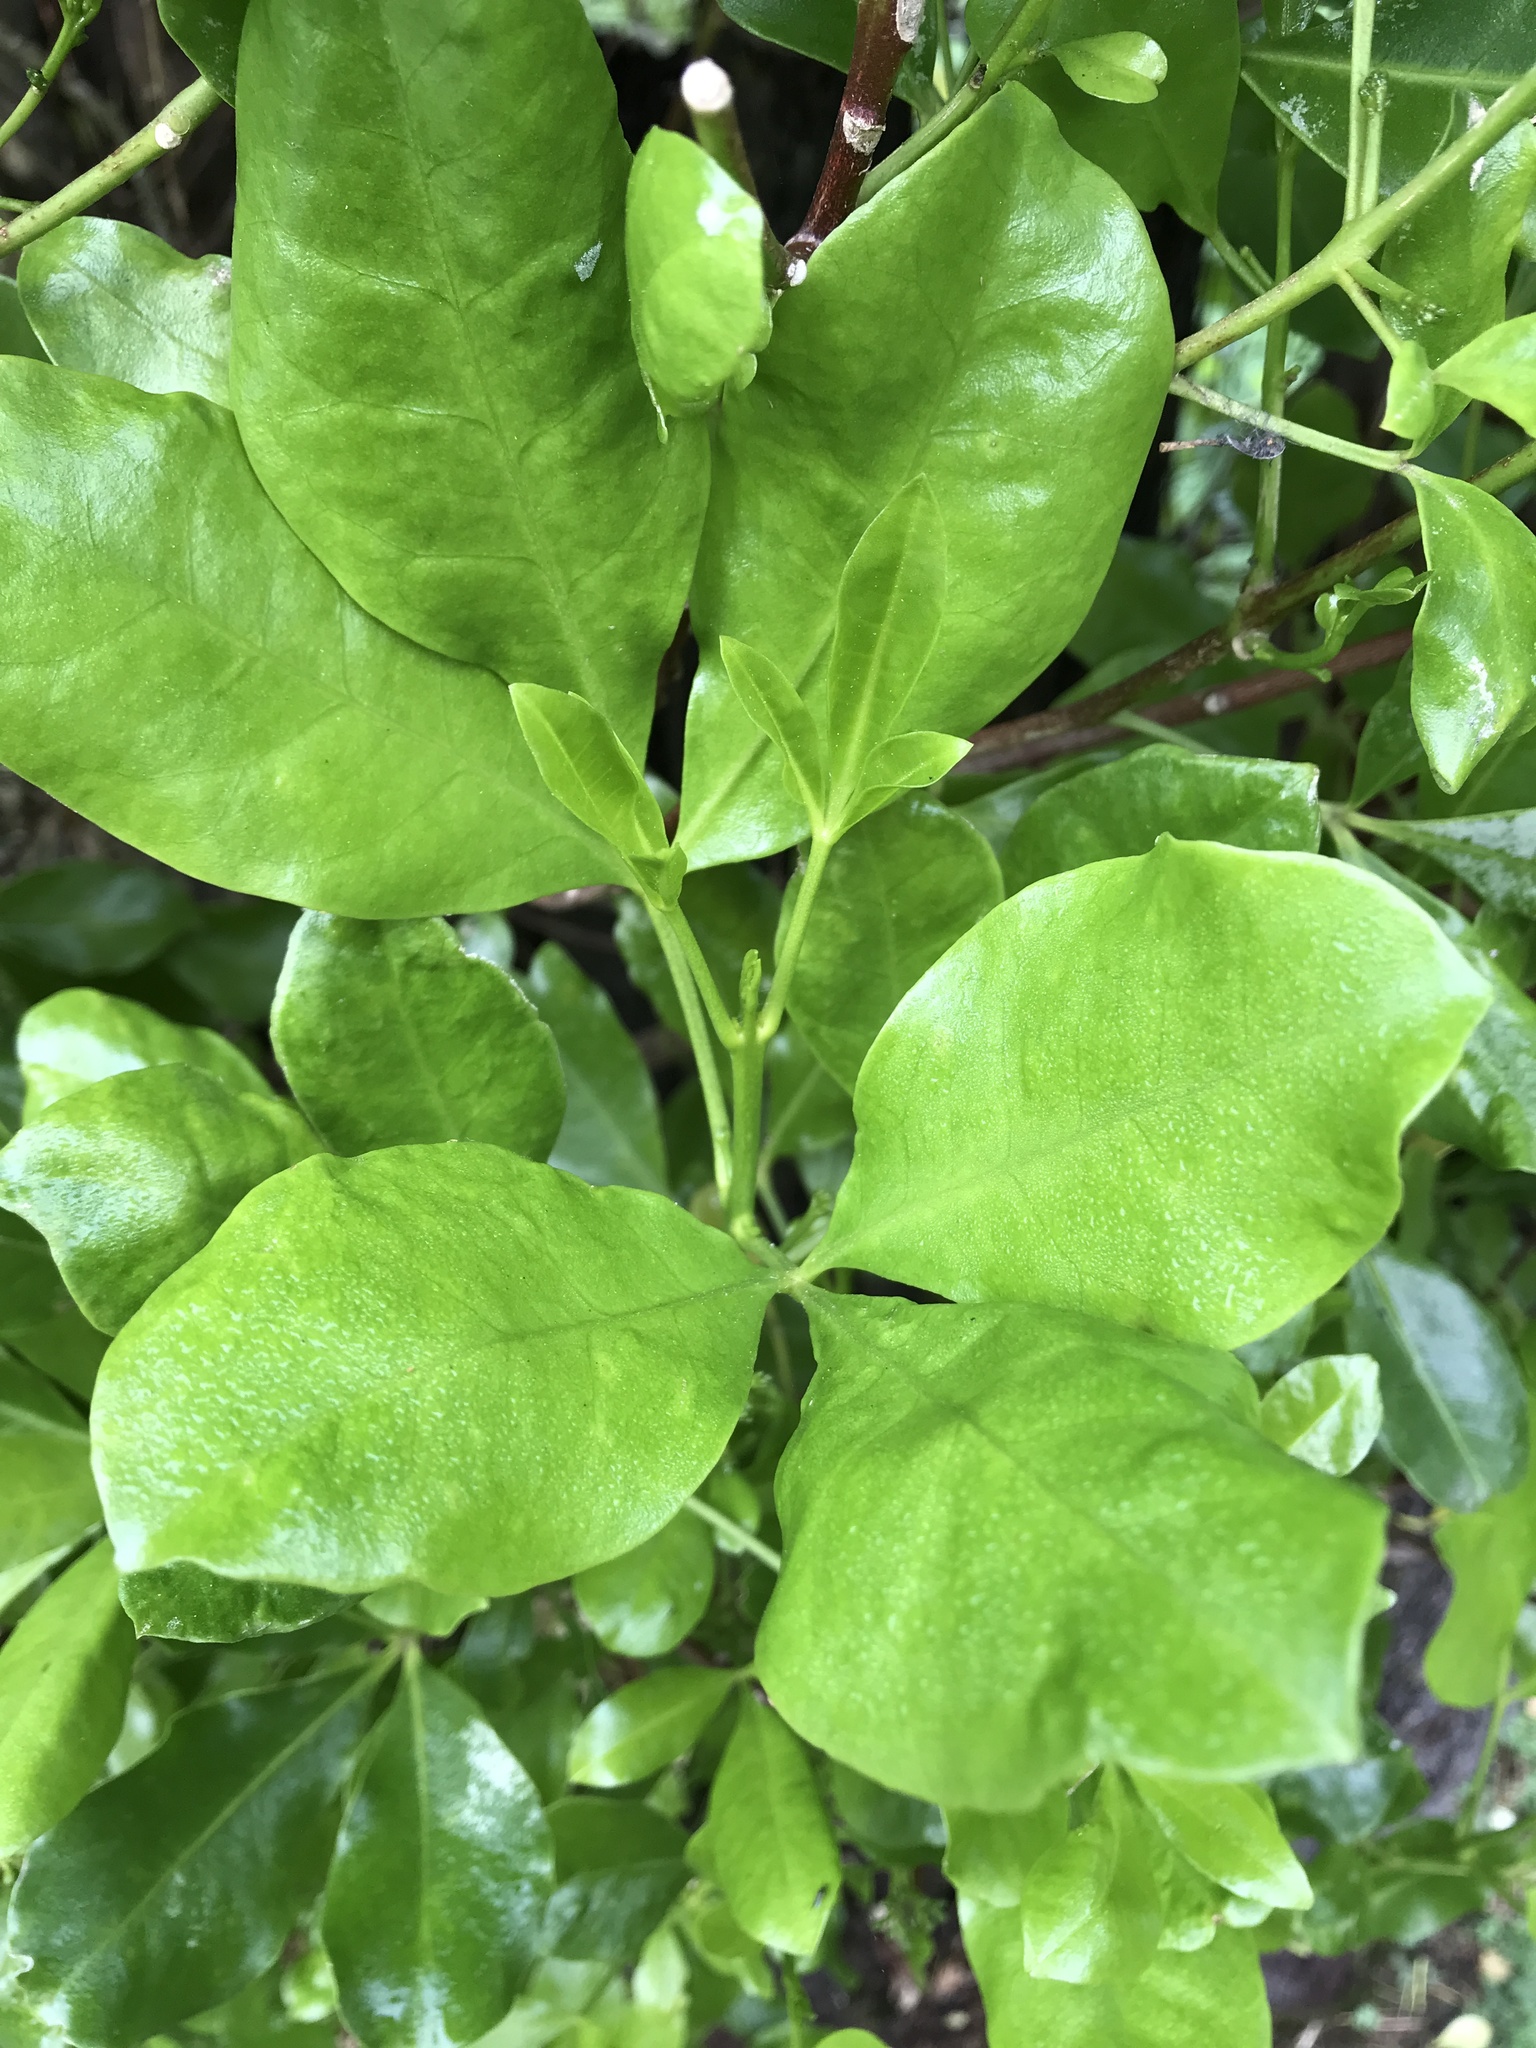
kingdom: Plantae
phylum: Tracheophyta
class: Magnoliopsida
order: Sapindales
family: Rutaceae
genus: Melicope
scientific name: Melicope ternata
